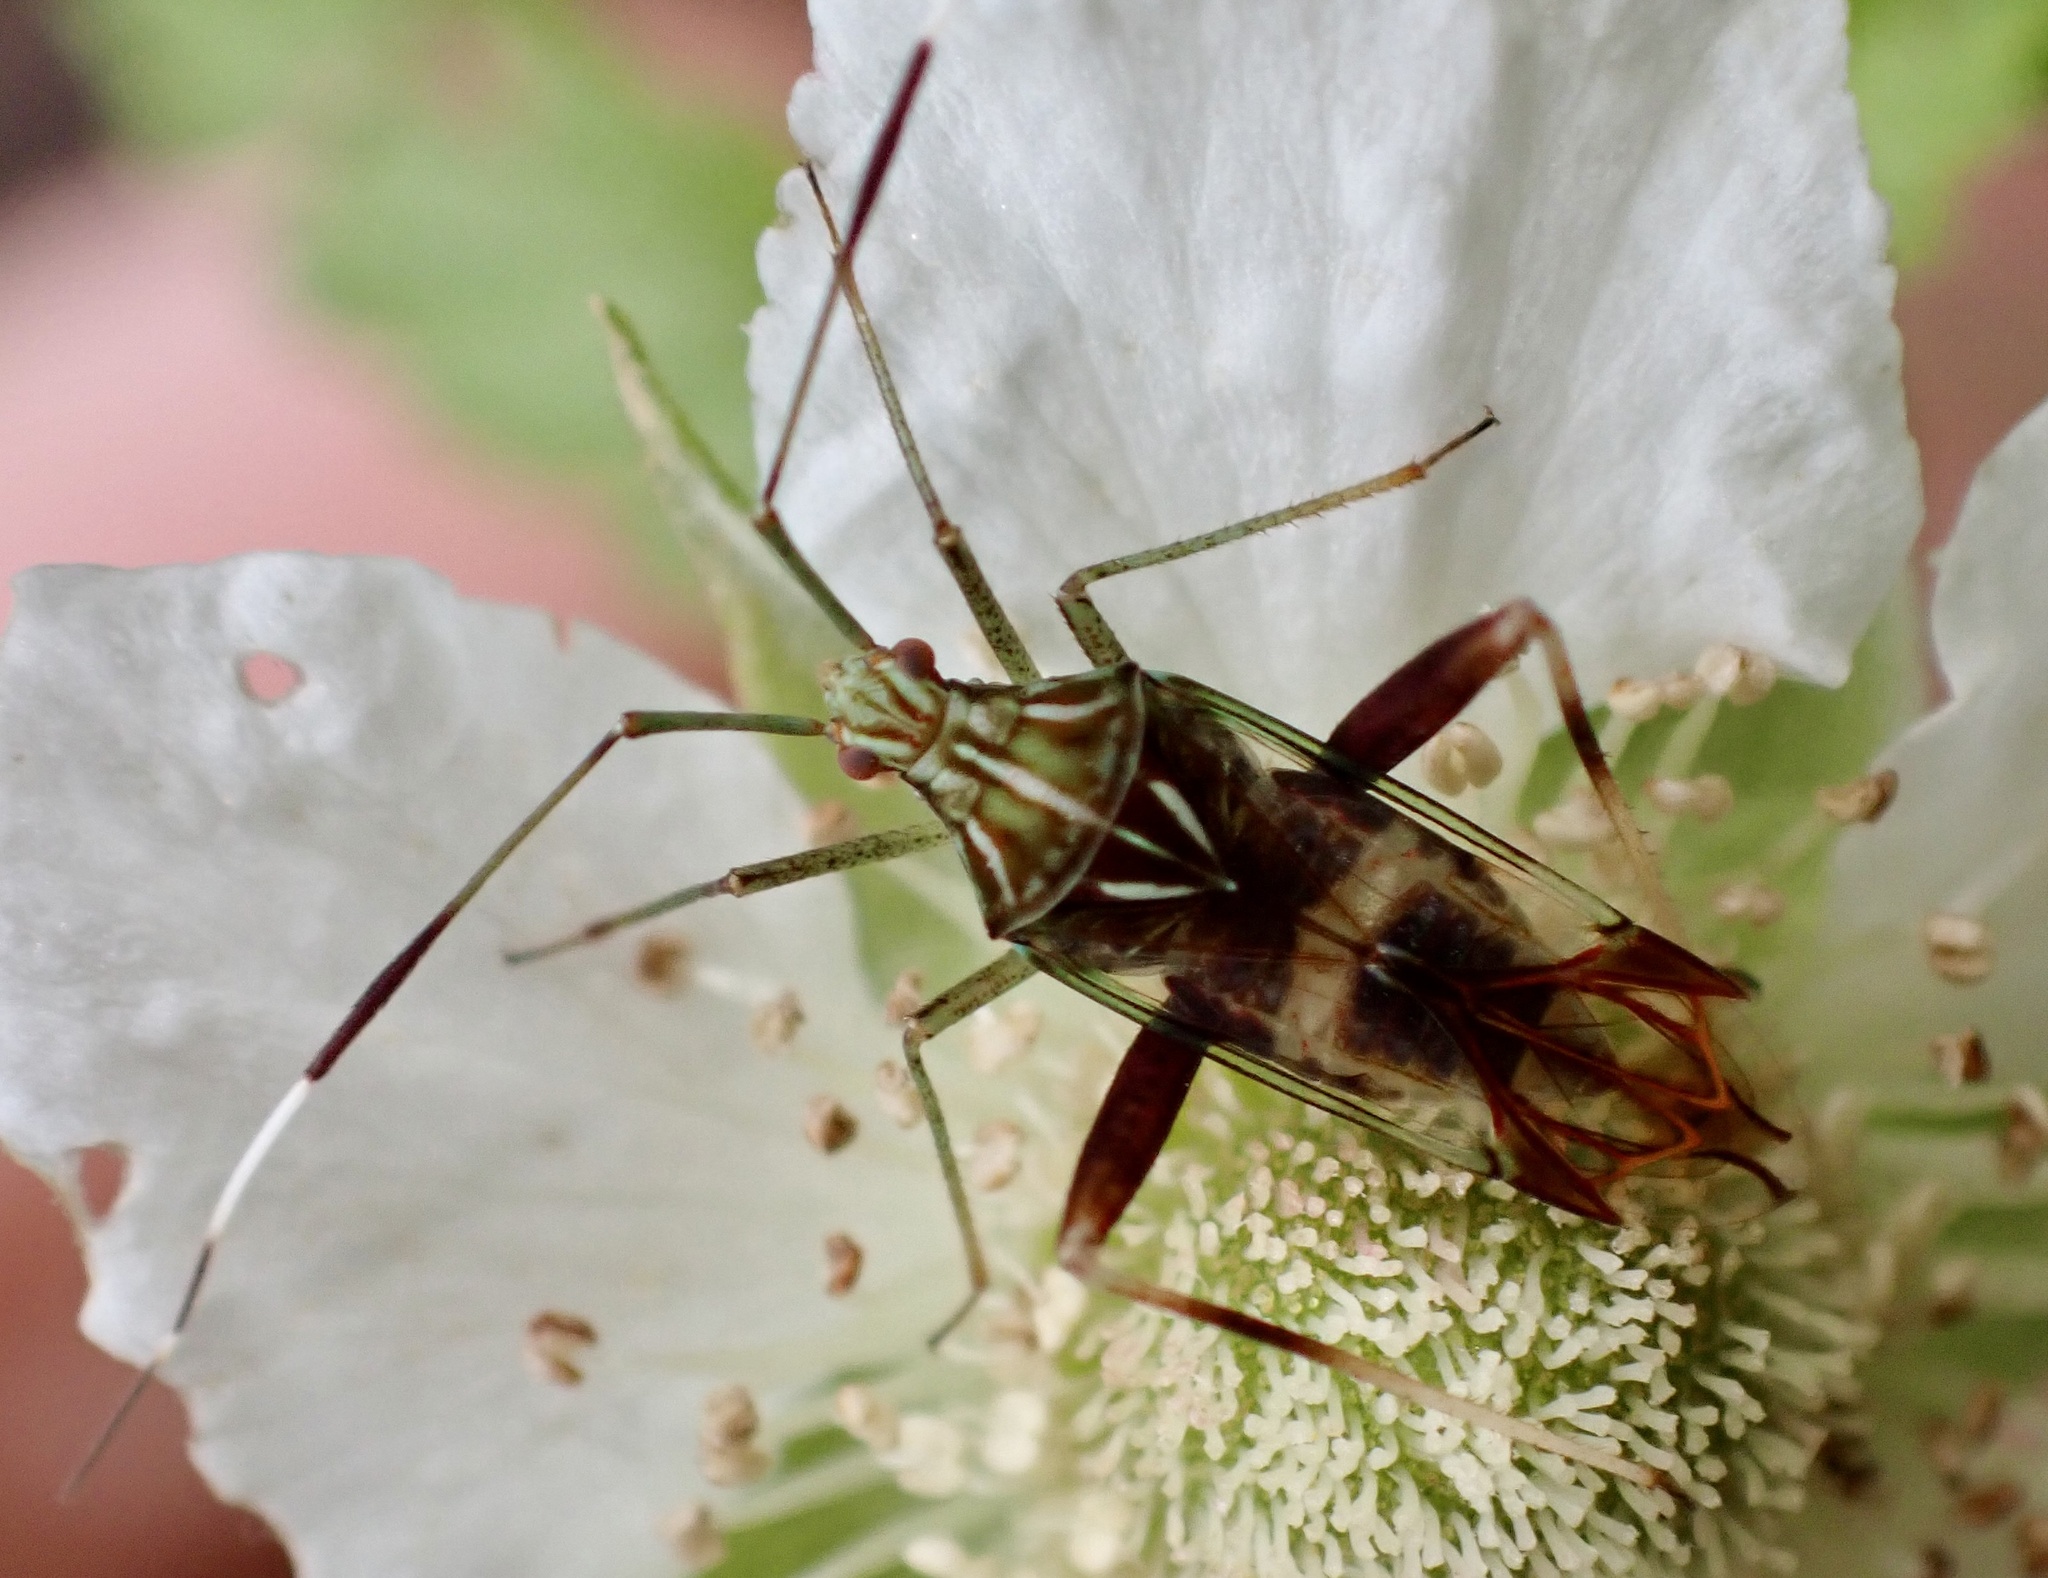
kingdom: Animalia
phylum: Arthropoda
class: Insecta
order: Hemiptera
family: Miridae
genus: Isabel
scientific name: Isabel ravana
